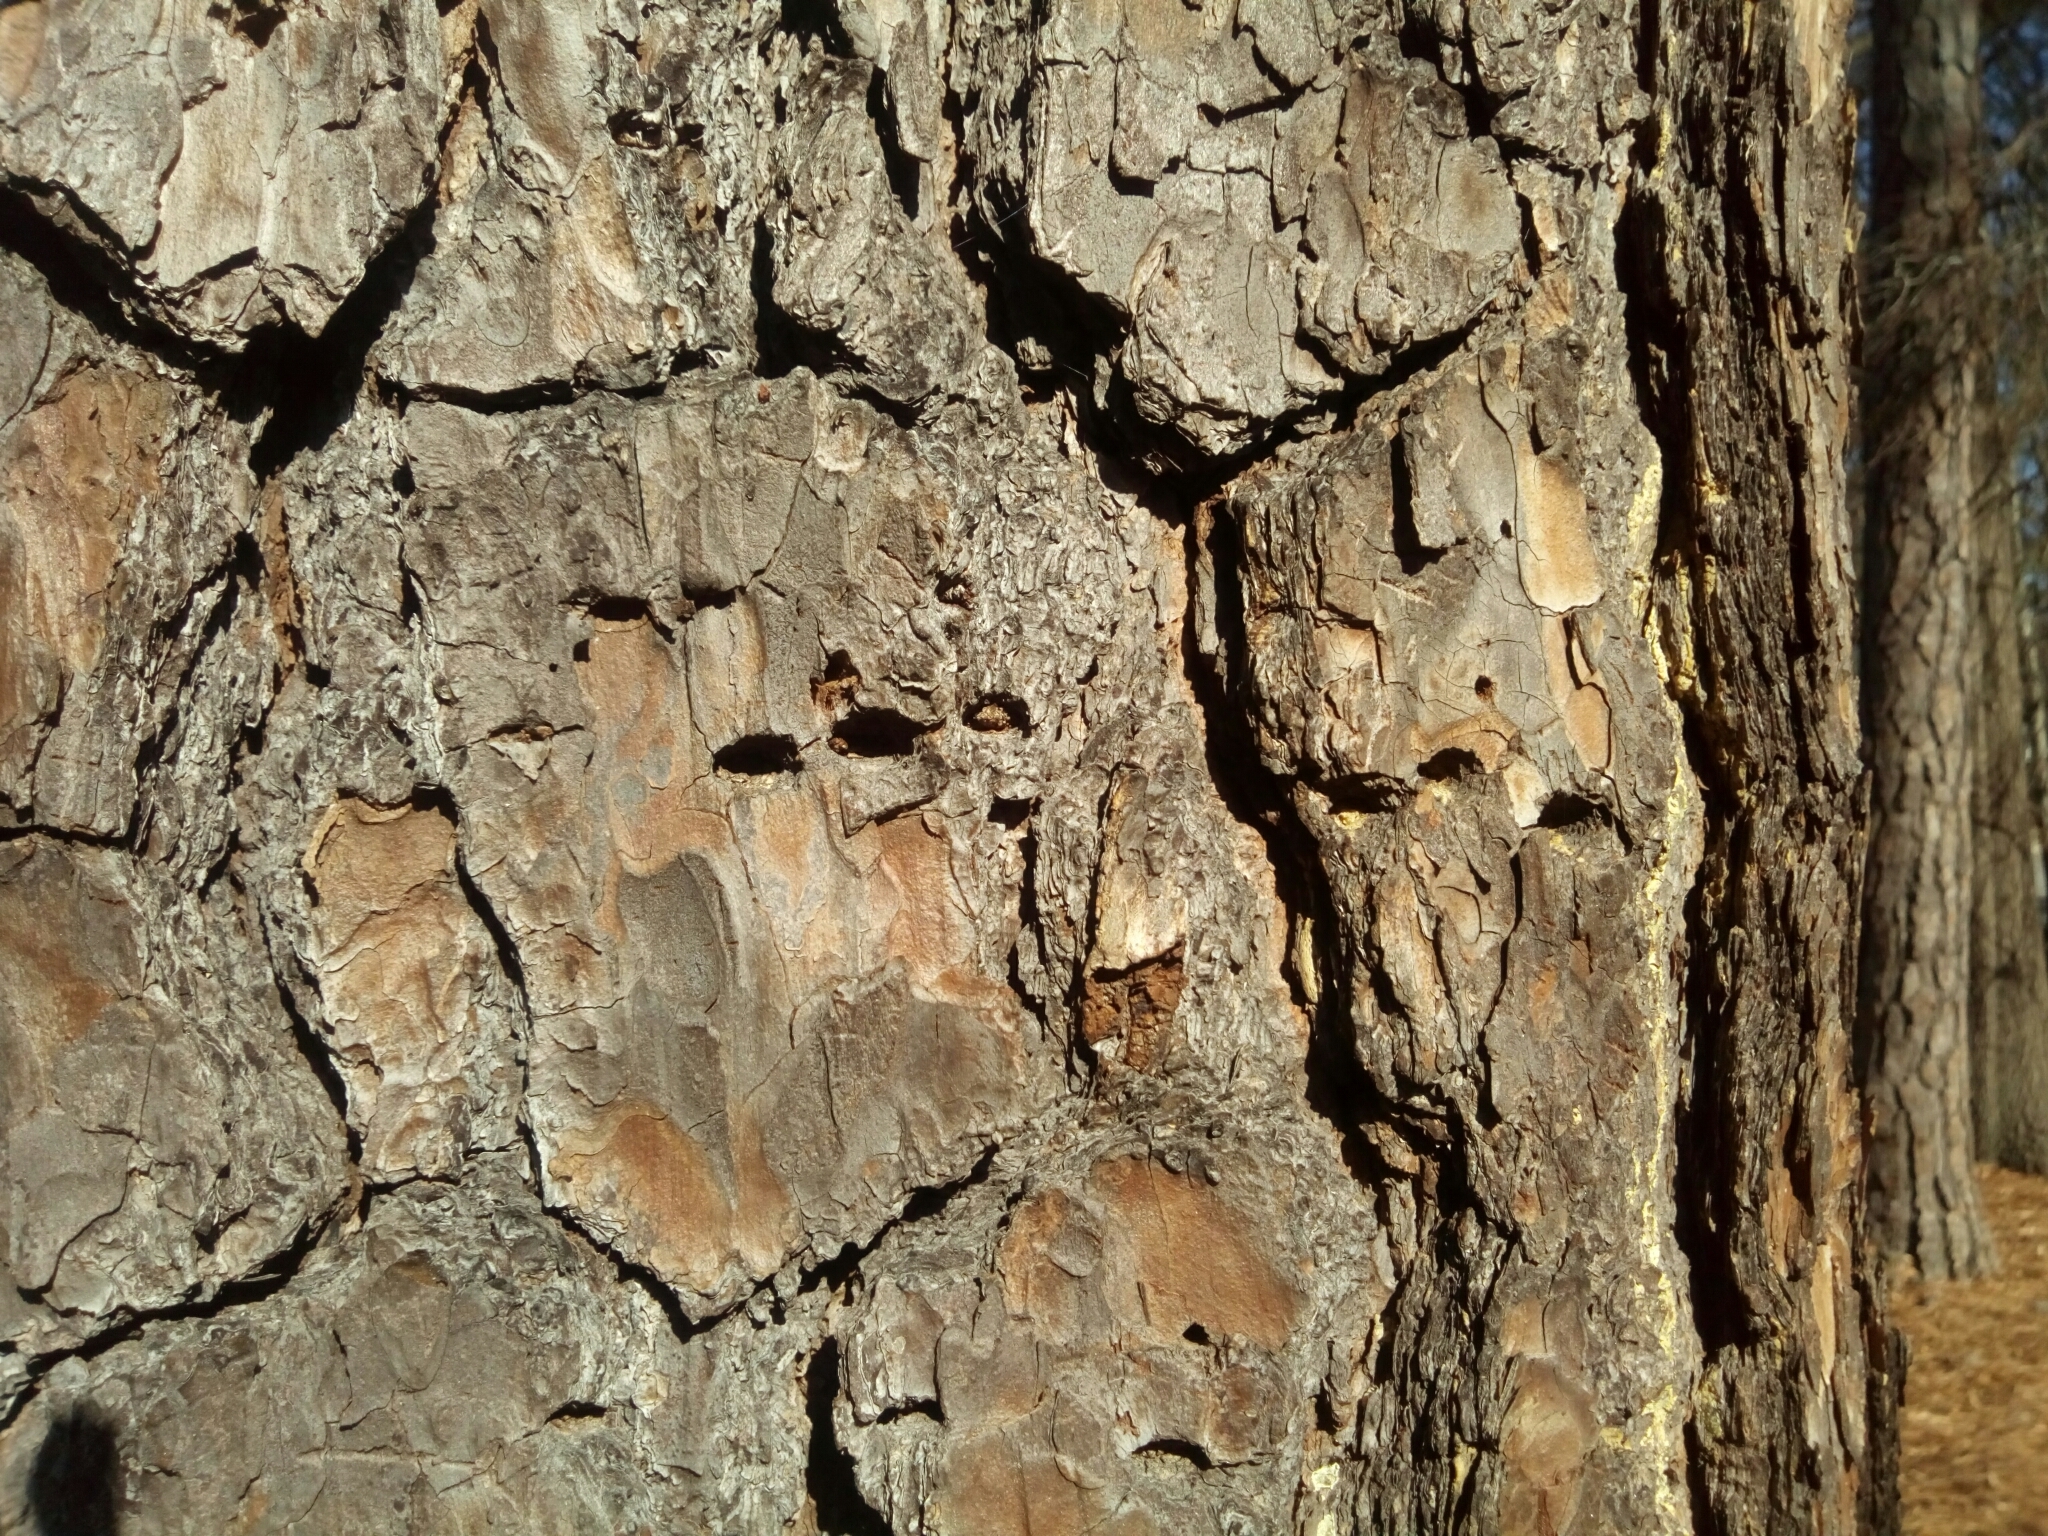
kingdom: Animalia
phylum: Chordata
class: Aves
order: Piciformes
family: Picidae
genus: Sphyrapicus
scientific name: Sphyrapicus varius
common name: Yellow-bellied sapsucker
